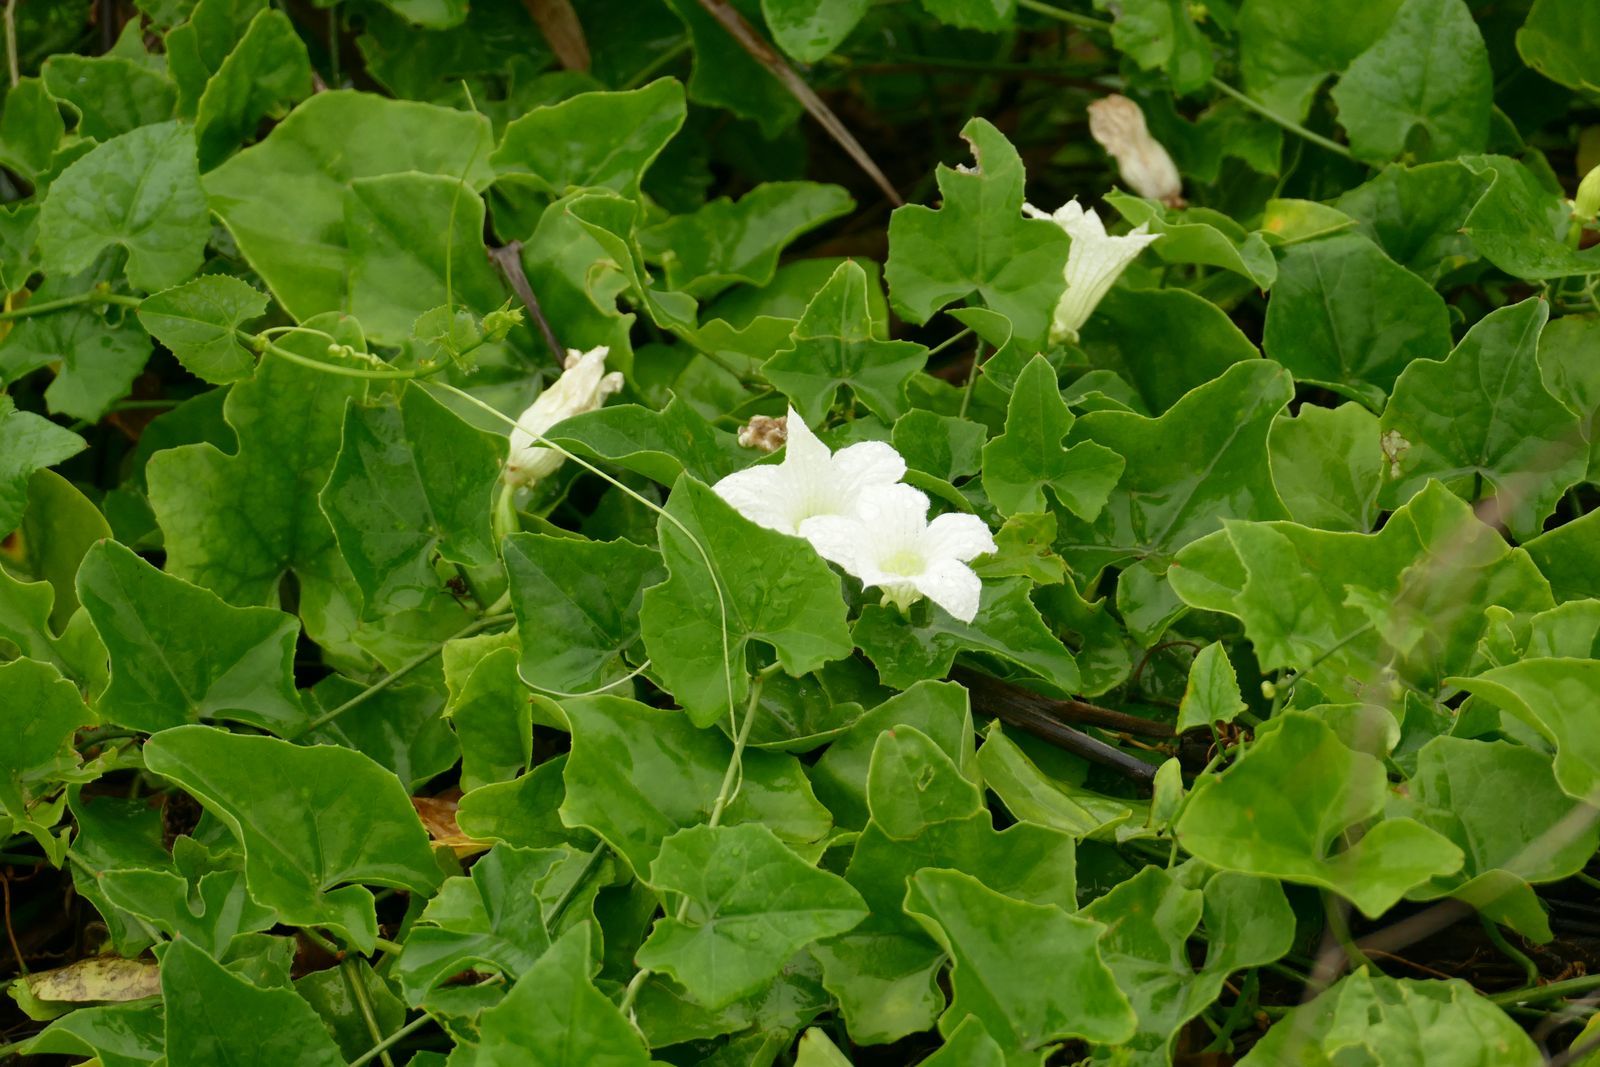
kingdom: Plantae
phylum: Tracheophyta
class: Magnoliopsida
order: Cucurbitales
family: Cucurbitaceae
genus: Coccinia
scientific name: Coccinia grandis
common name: Ivy gourd
